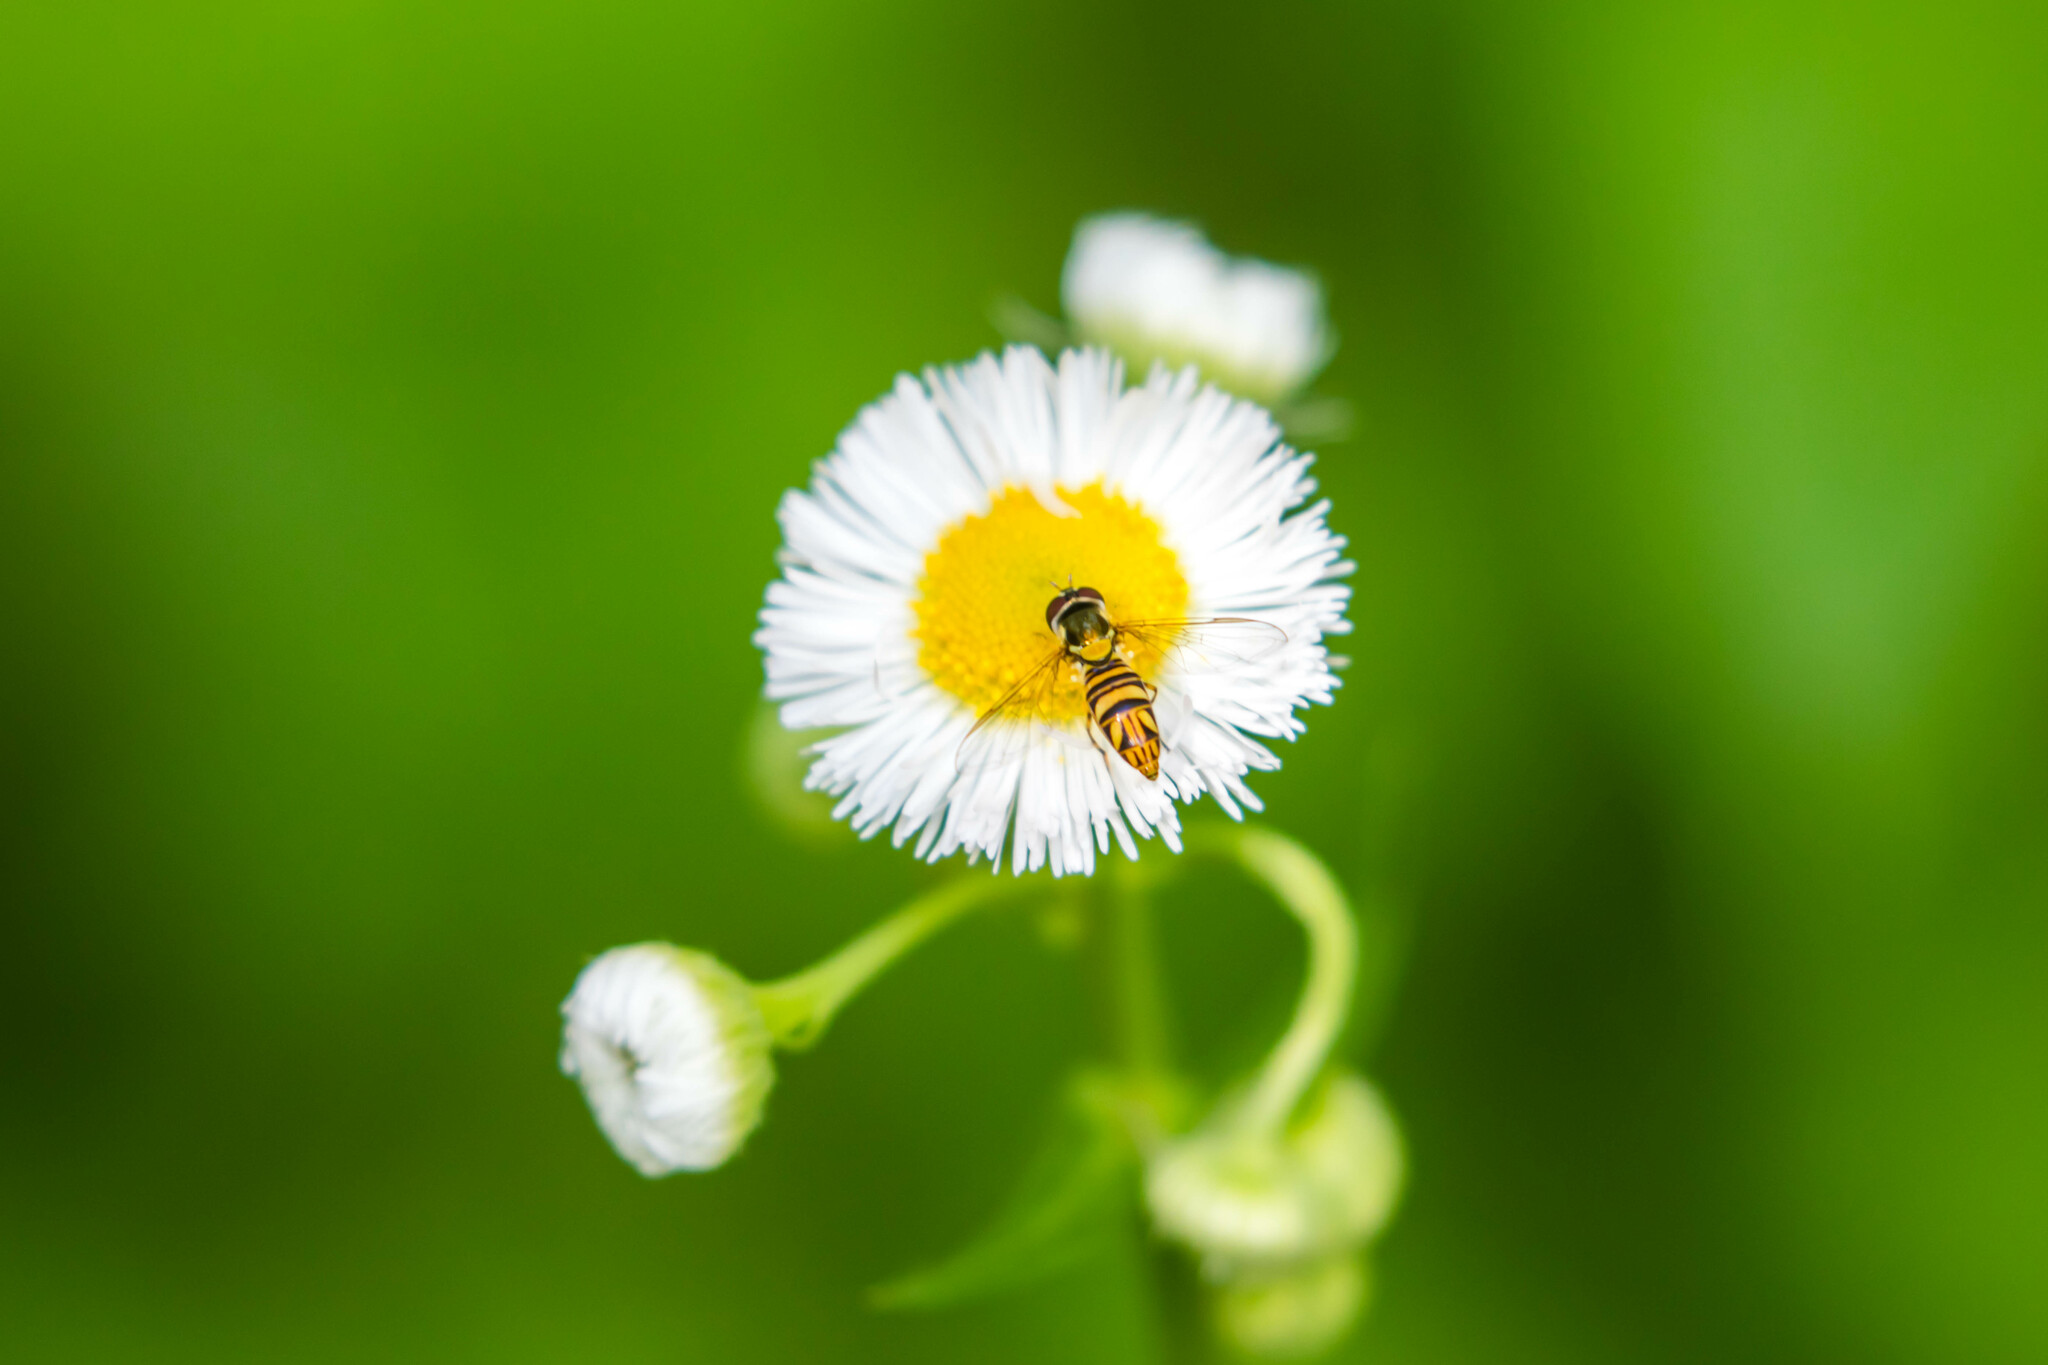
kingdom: Animalia
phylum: Arthropoda
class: Insecta
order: Diptera
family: Syrphidae
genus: Allograpta
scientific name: Allograpta obliqua
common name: Common oblique syrphid
